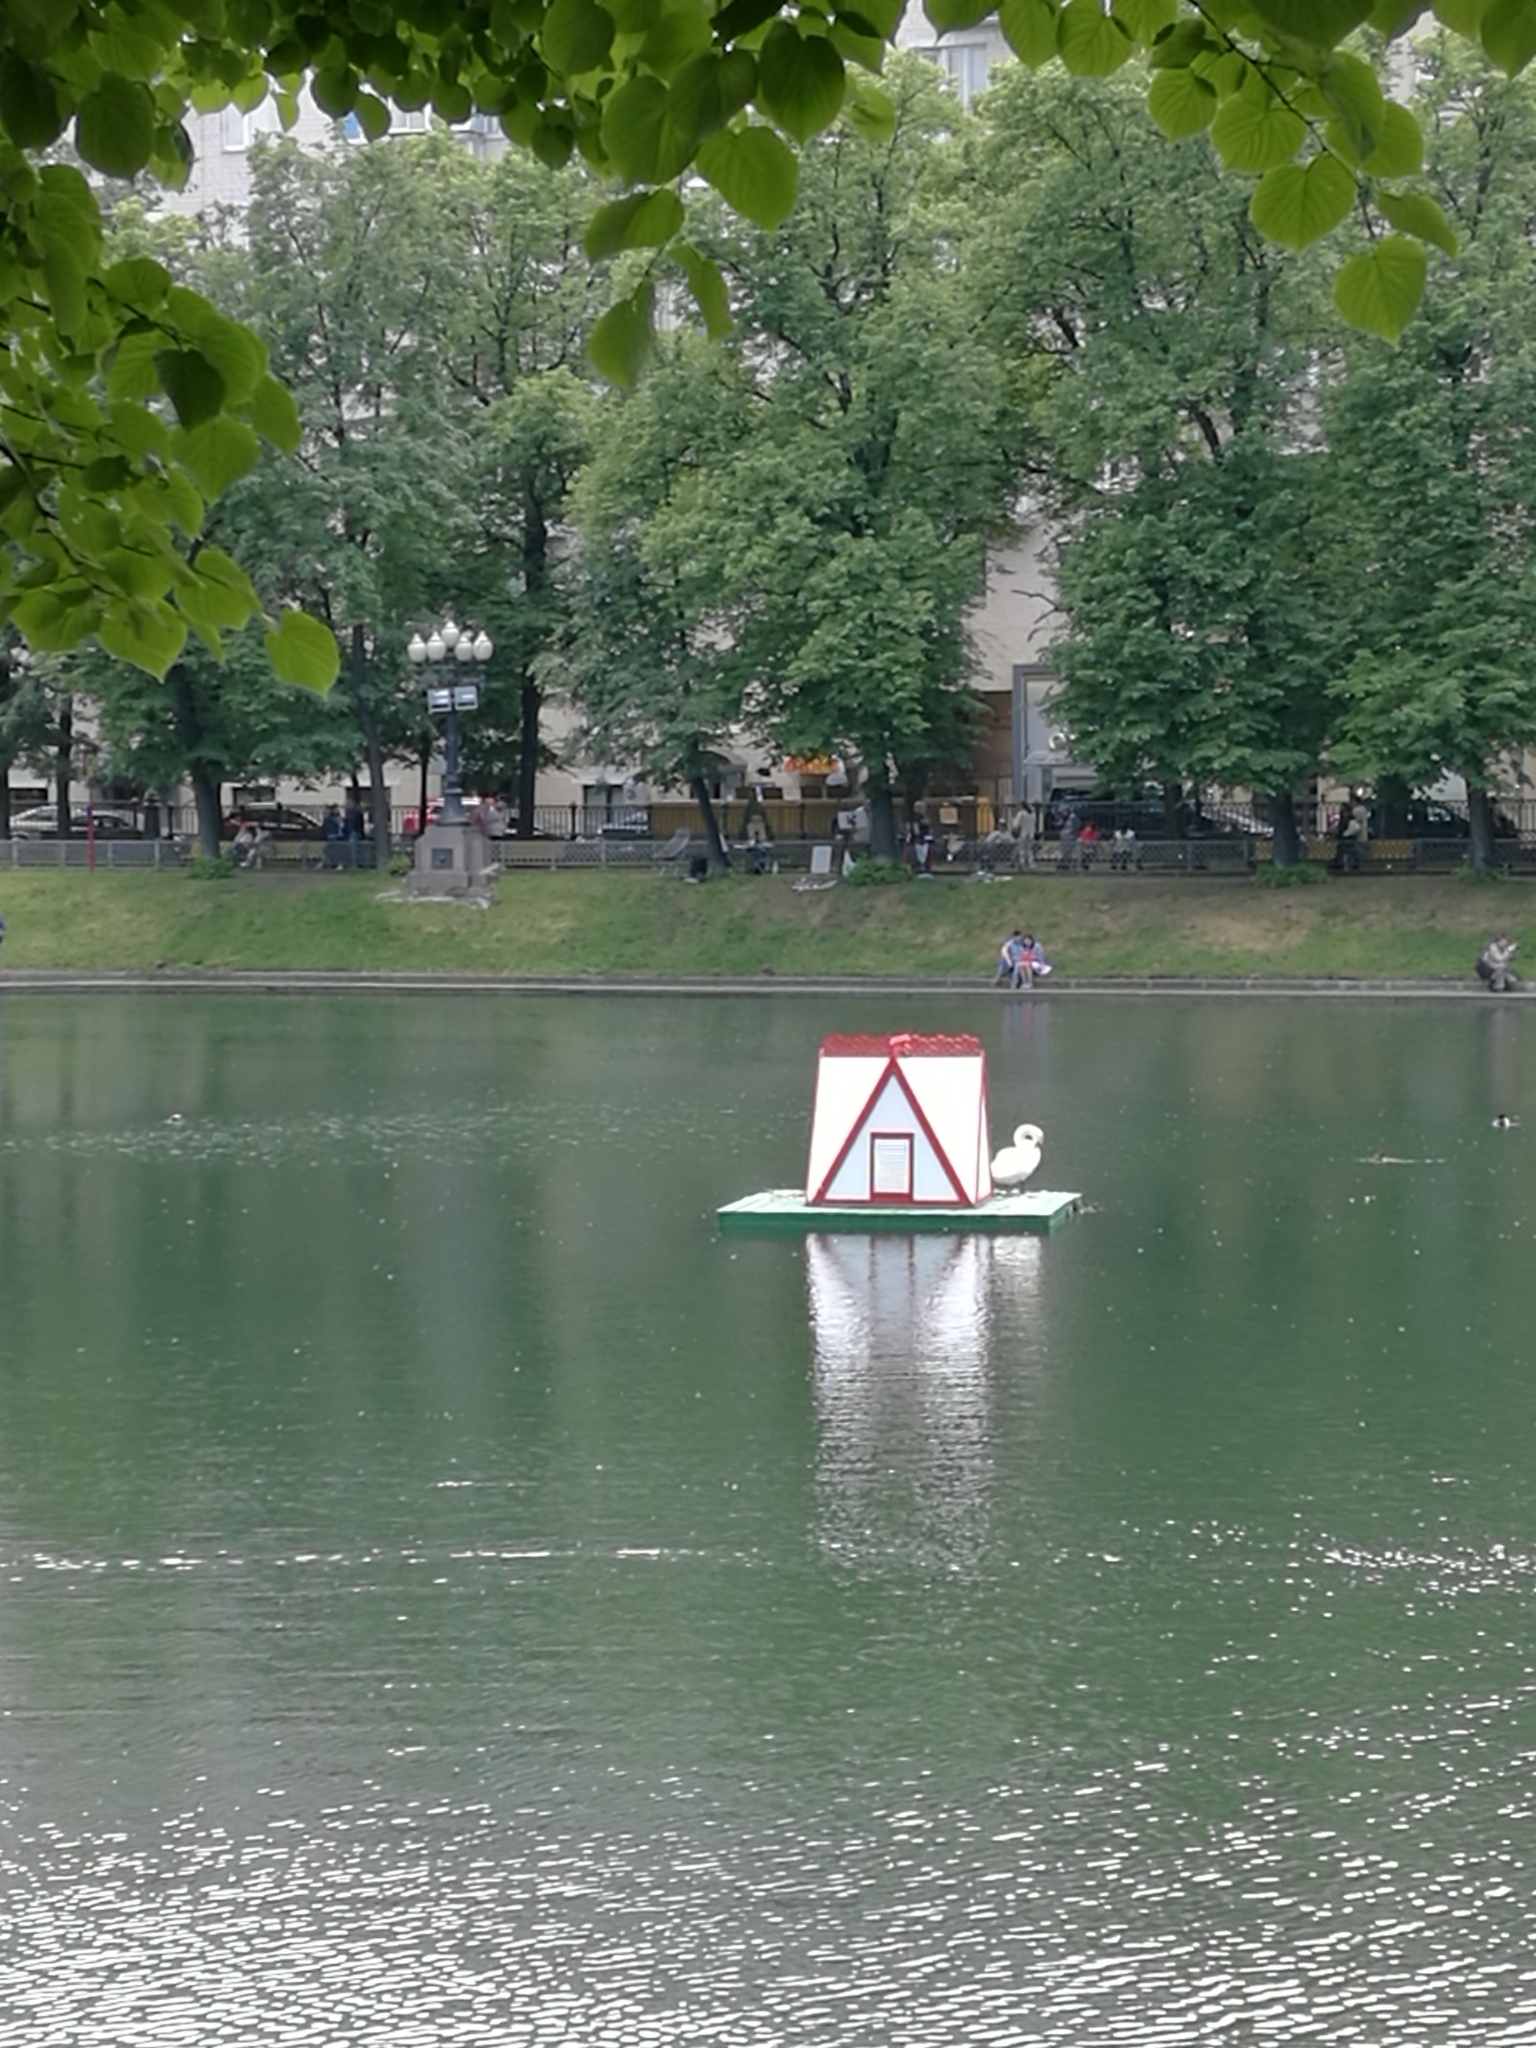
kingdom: Animalia
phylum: Chordata
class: Aves
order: Anseriformes
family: Anatidae
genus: Cygnus
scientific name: Cygnus olor
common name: Mute swan
